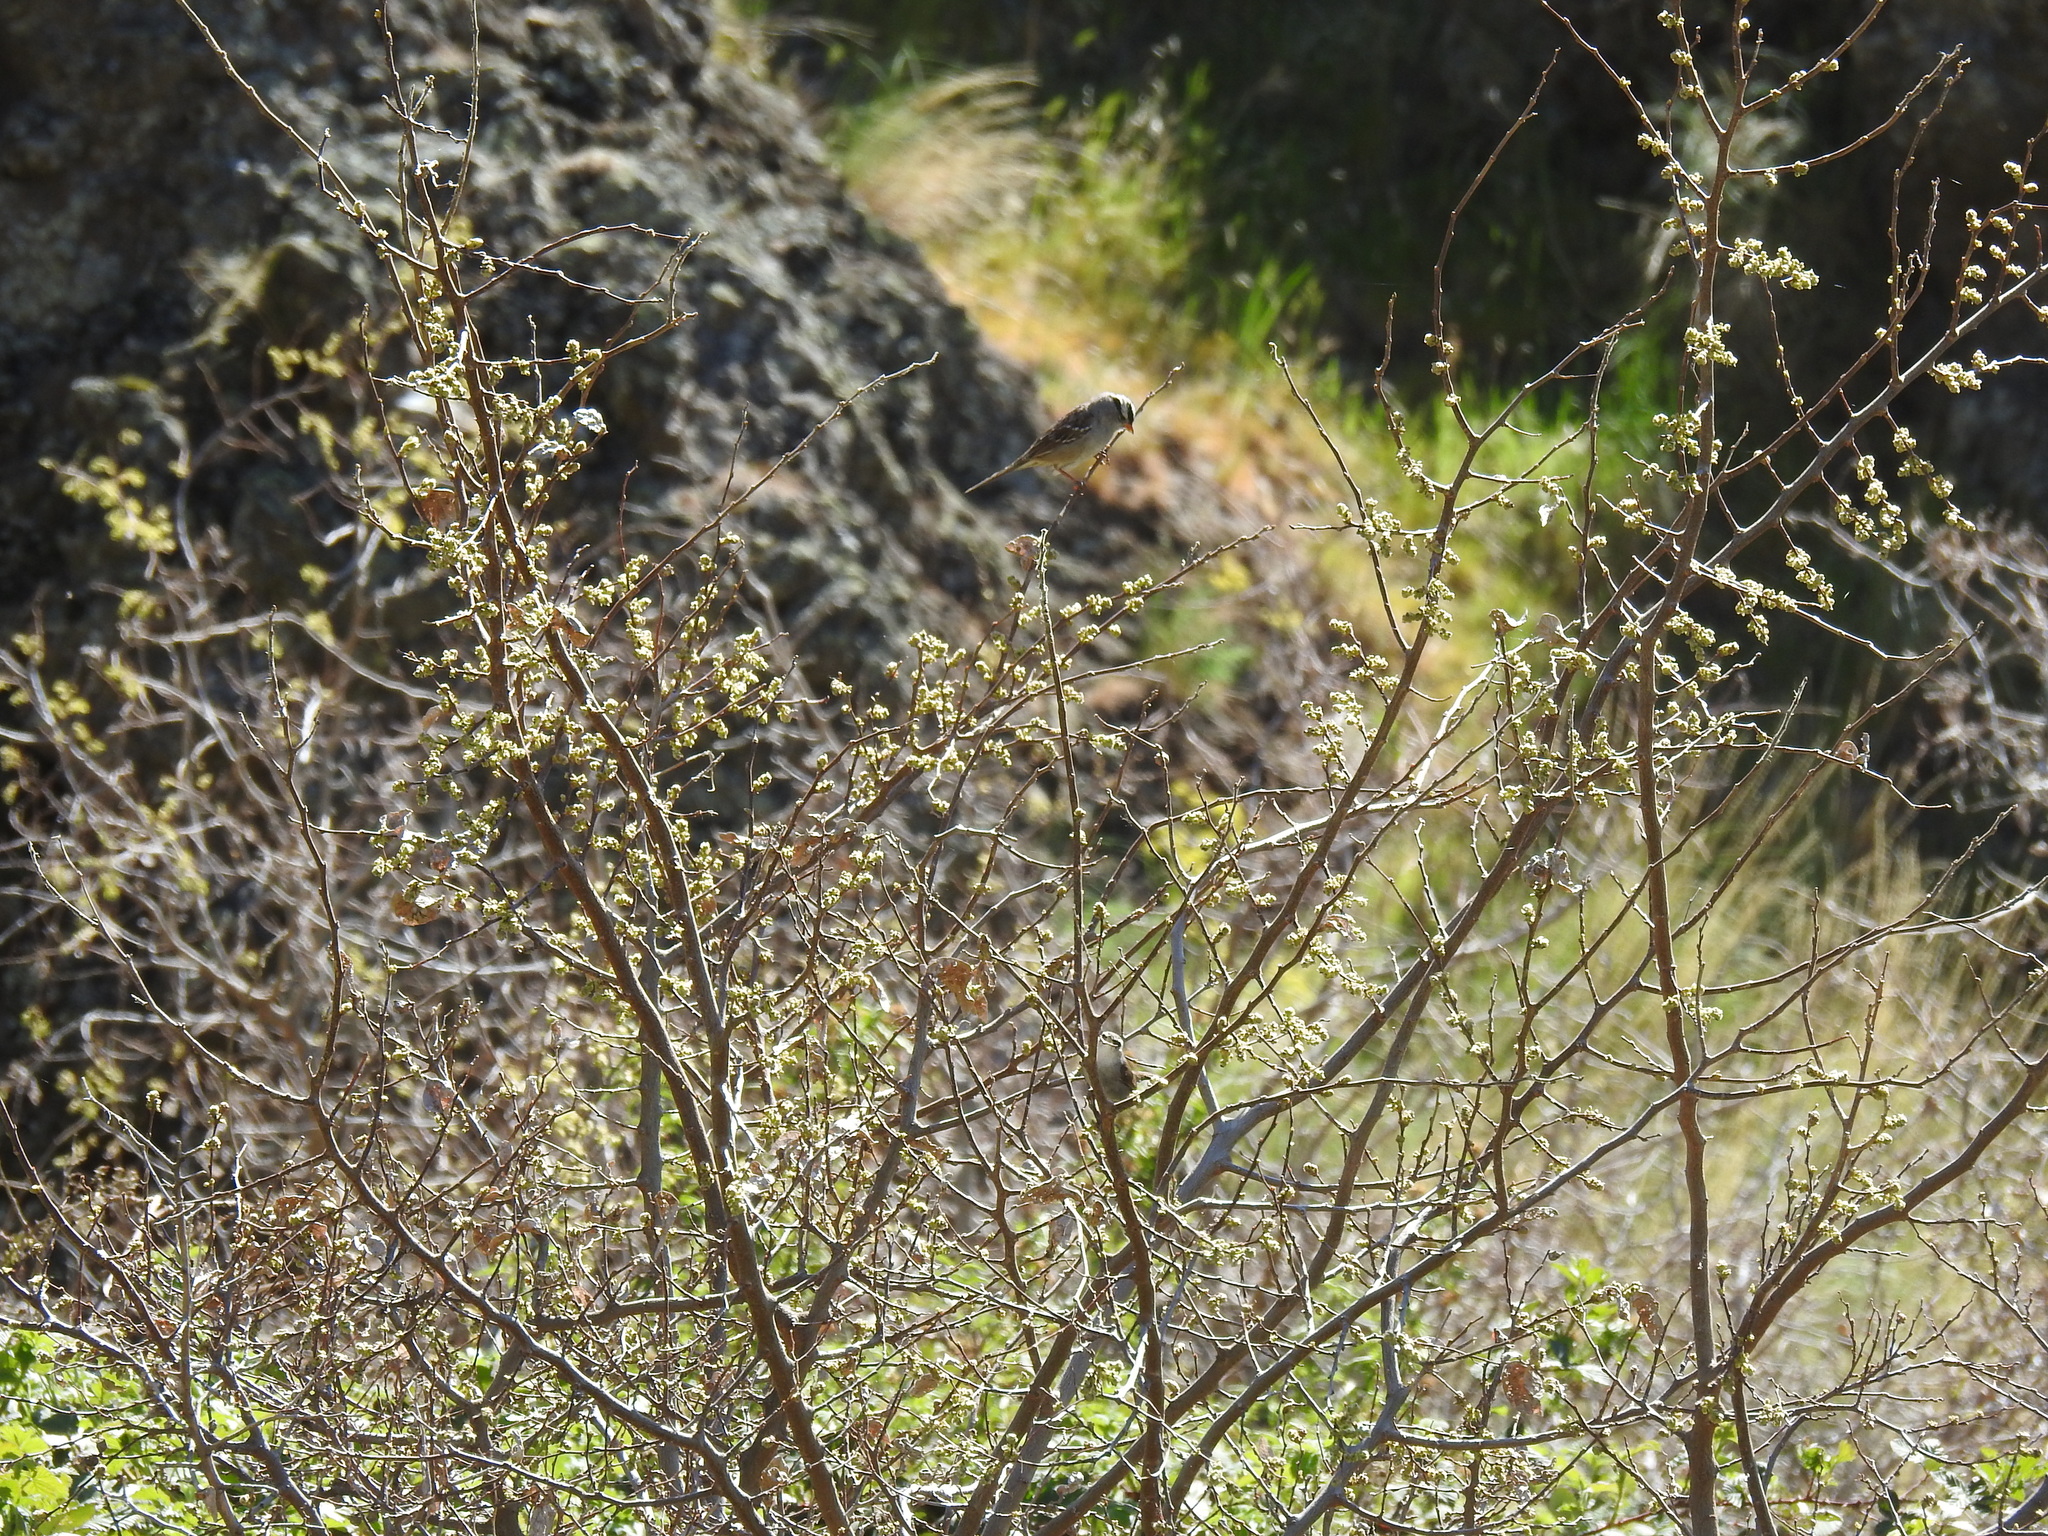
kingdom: Animalia
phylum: Chordata
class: Aves
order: Passeriformes
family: Passerellidae
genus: Zonotrichia
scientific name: Zonotrichia leucophrys
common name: White-crowned sparrow
